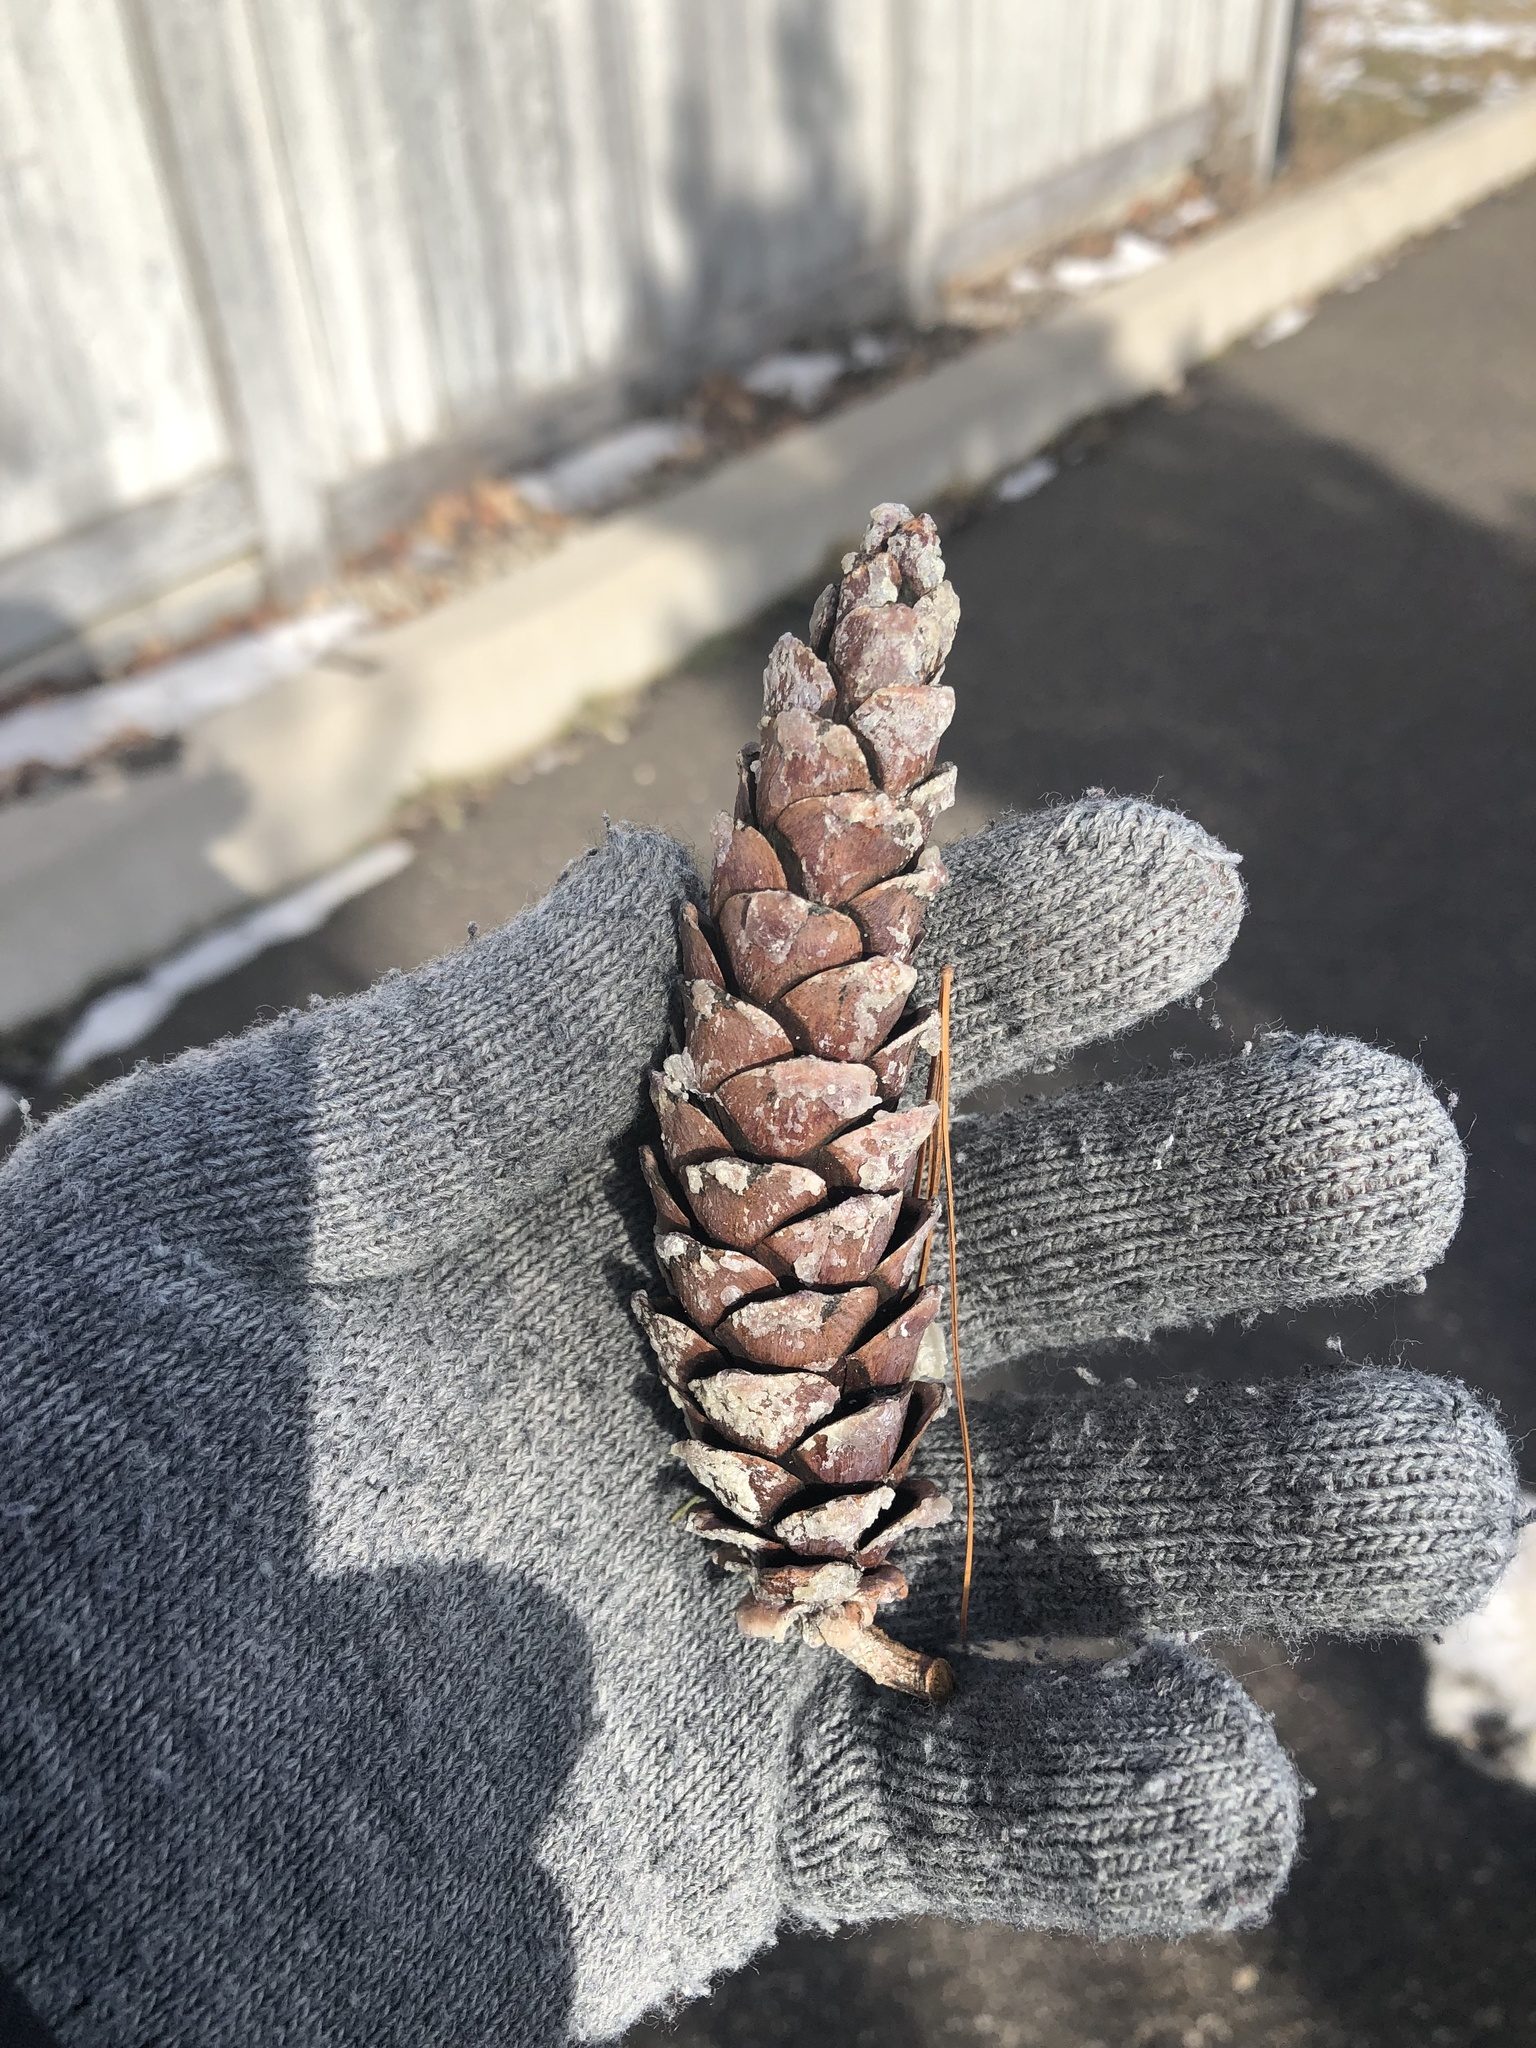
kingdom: Plantae
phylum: Tracheophyta
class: Pinopsida
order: Pinales
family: Pinaceae
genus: Pinus
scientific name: Pinus strobus
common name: Weymouth pine
